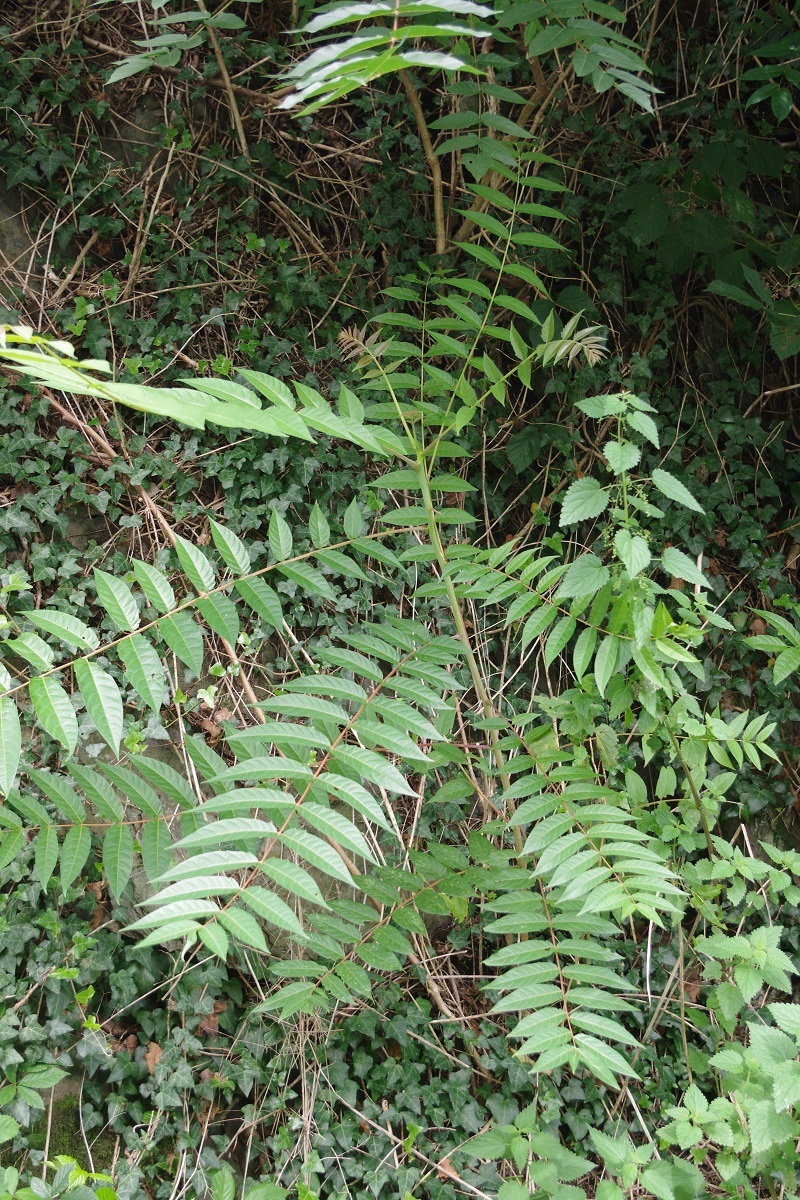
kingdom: Plantae
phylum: Tracheophyta
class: Magnoliopsida
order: Sapindales
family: Simaroubaceae
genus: Ailanthus
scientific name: Ailanthus altissima
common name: Tree-of-heaven
